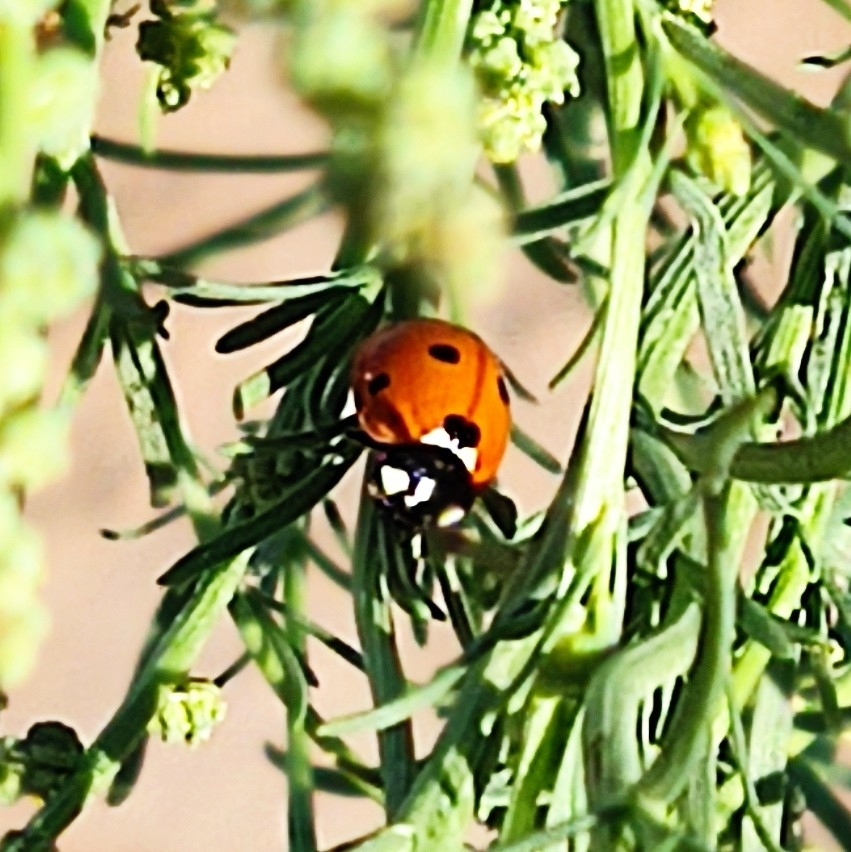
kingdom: Animalia
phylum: Arthropoda
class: Insecta
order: Coleoptera
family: Coccinellidae
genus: Coccinella
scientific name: Coccinella septempunctata
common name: Sevenspotted lady beetle
